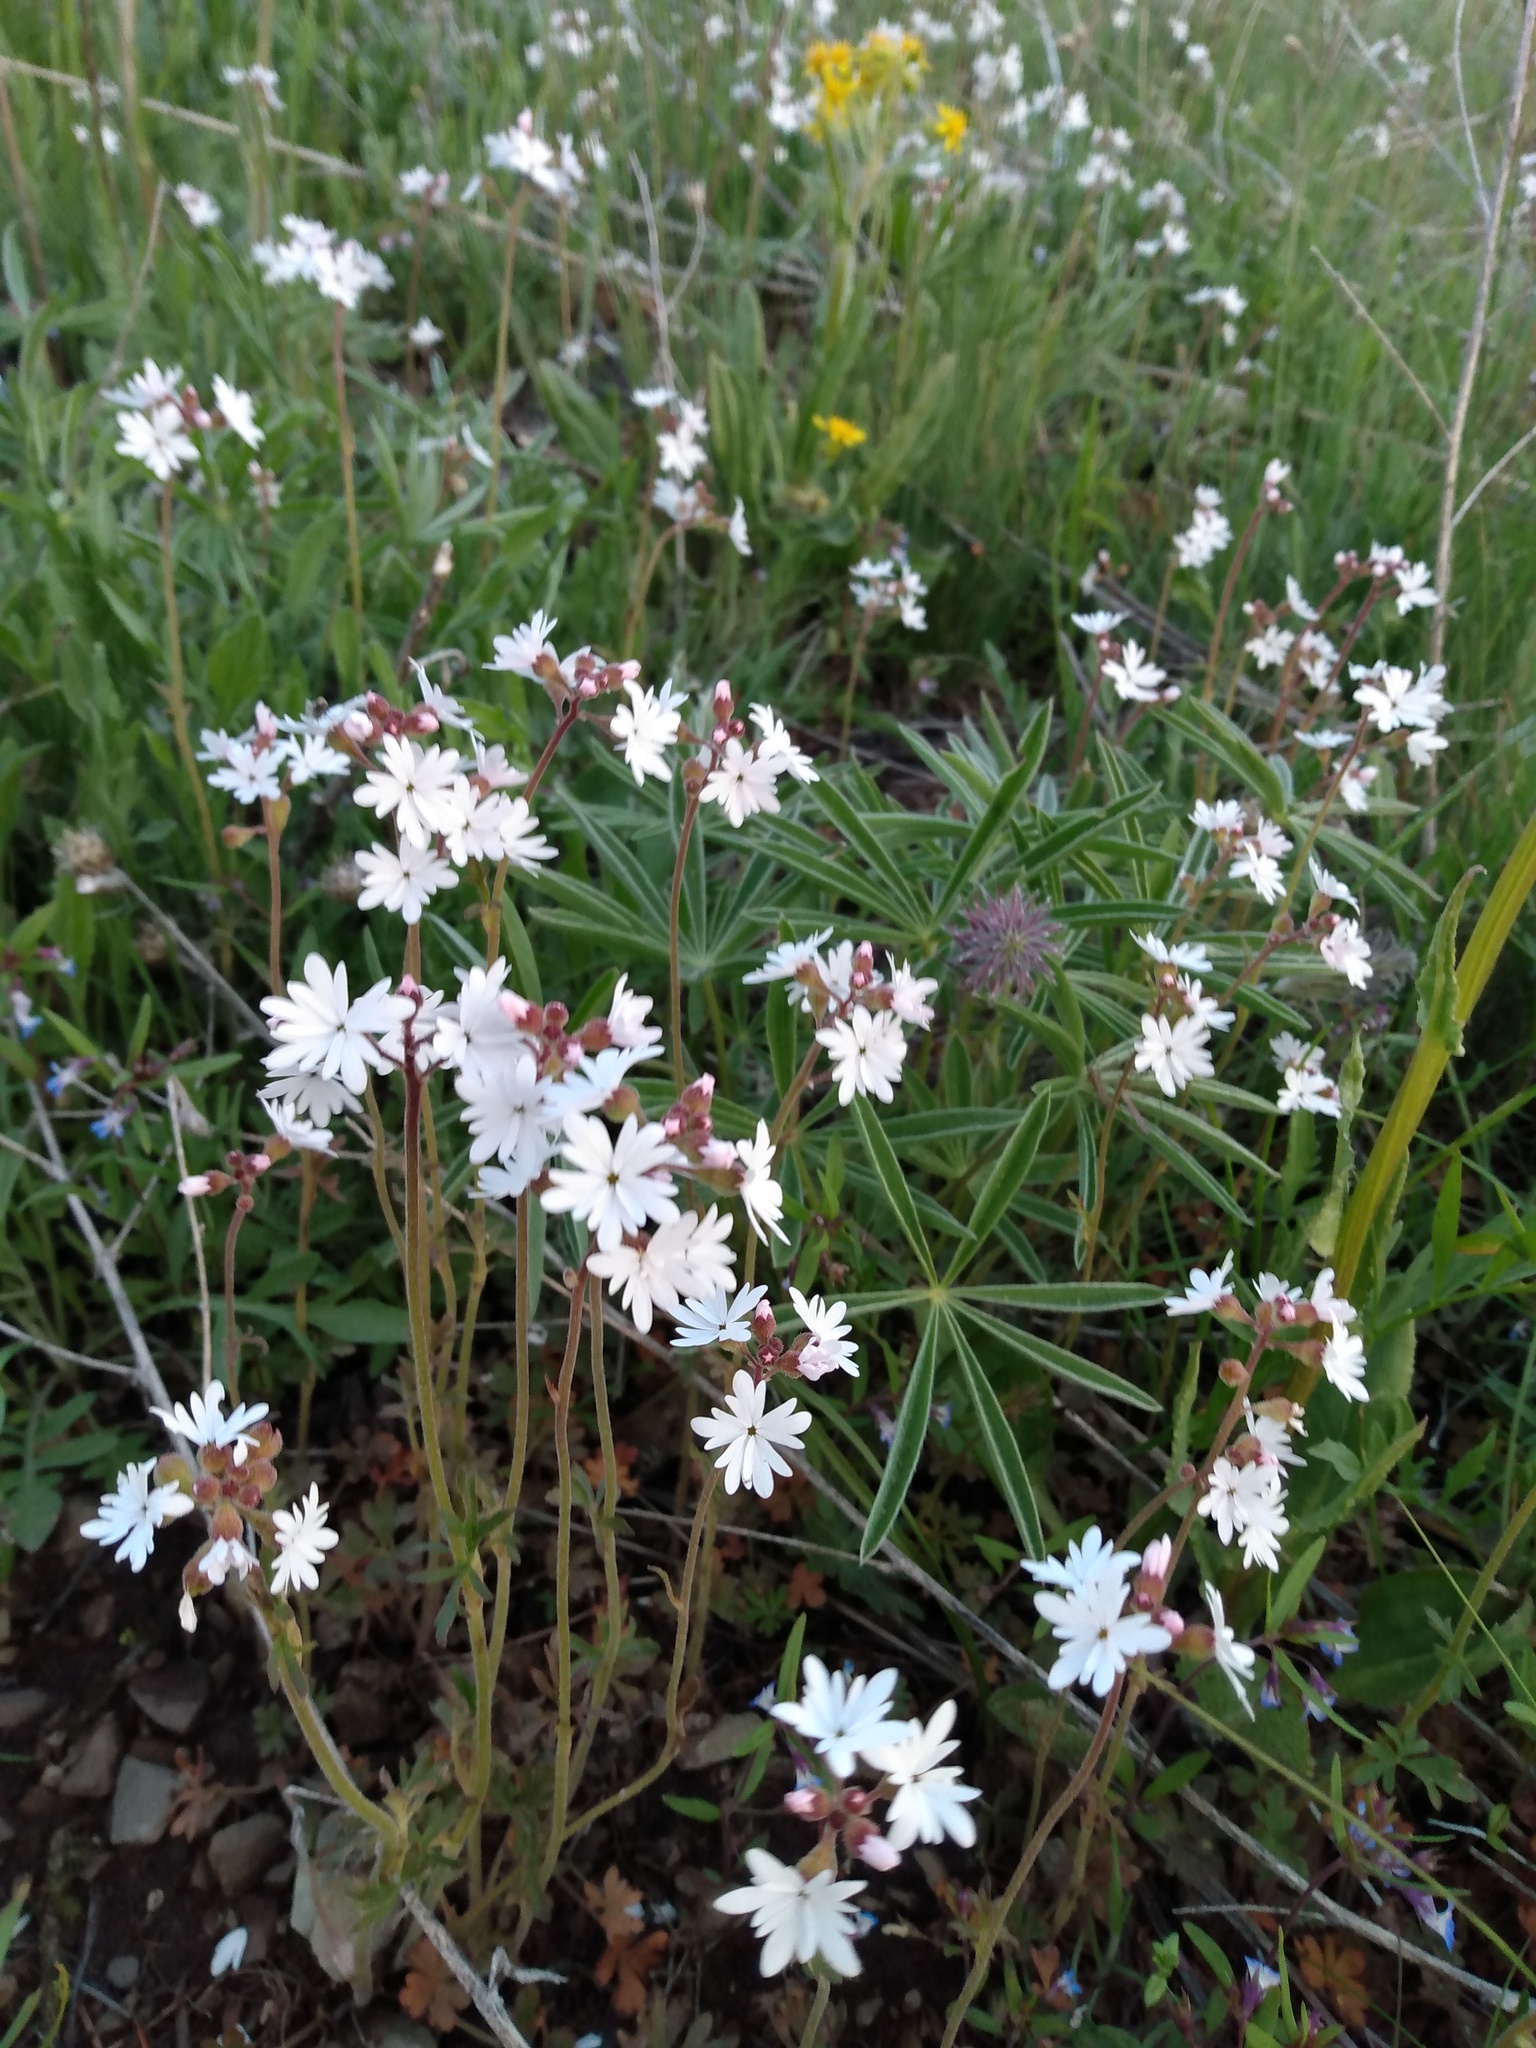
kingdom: Plantae
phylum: Tracheophyta
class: Magnoliopsida
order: Saxifragales
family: Saxifragaceae
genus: Lithophragma
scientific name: Lithophragma parviflorum
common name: Small-flowered fringe-cup
